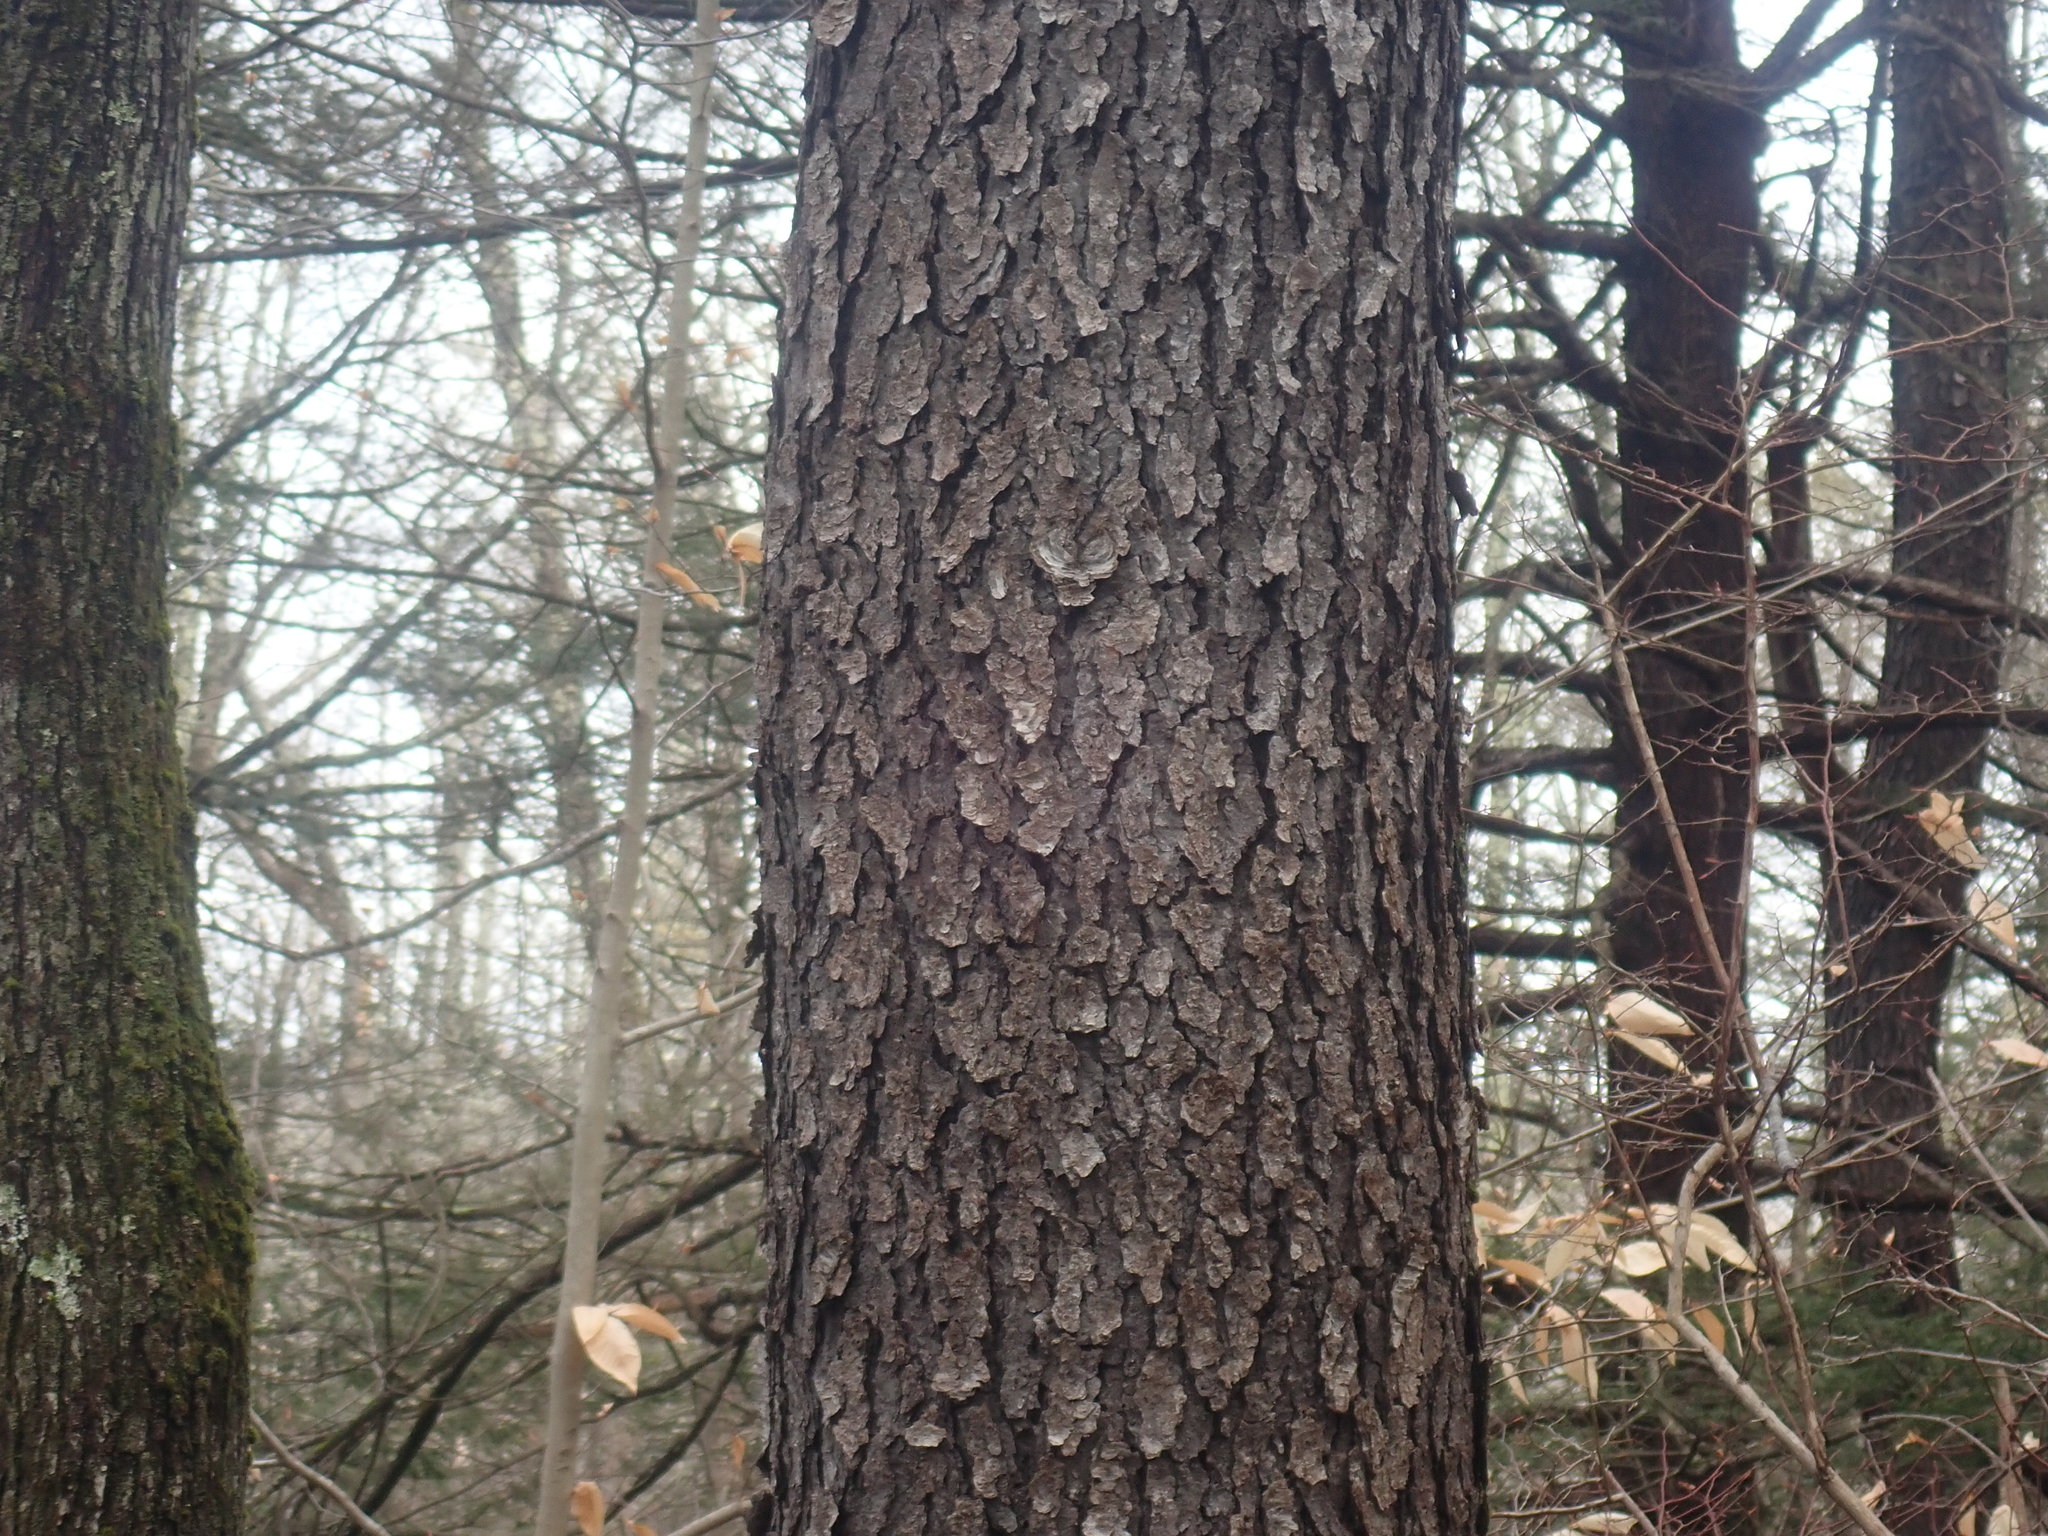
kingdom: Plantae
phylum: Tracheophyta
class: Magnoliopsida
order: Rosales
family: Rosaceae
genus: Prunus
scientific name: Prunus serotina
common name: Black cherry
